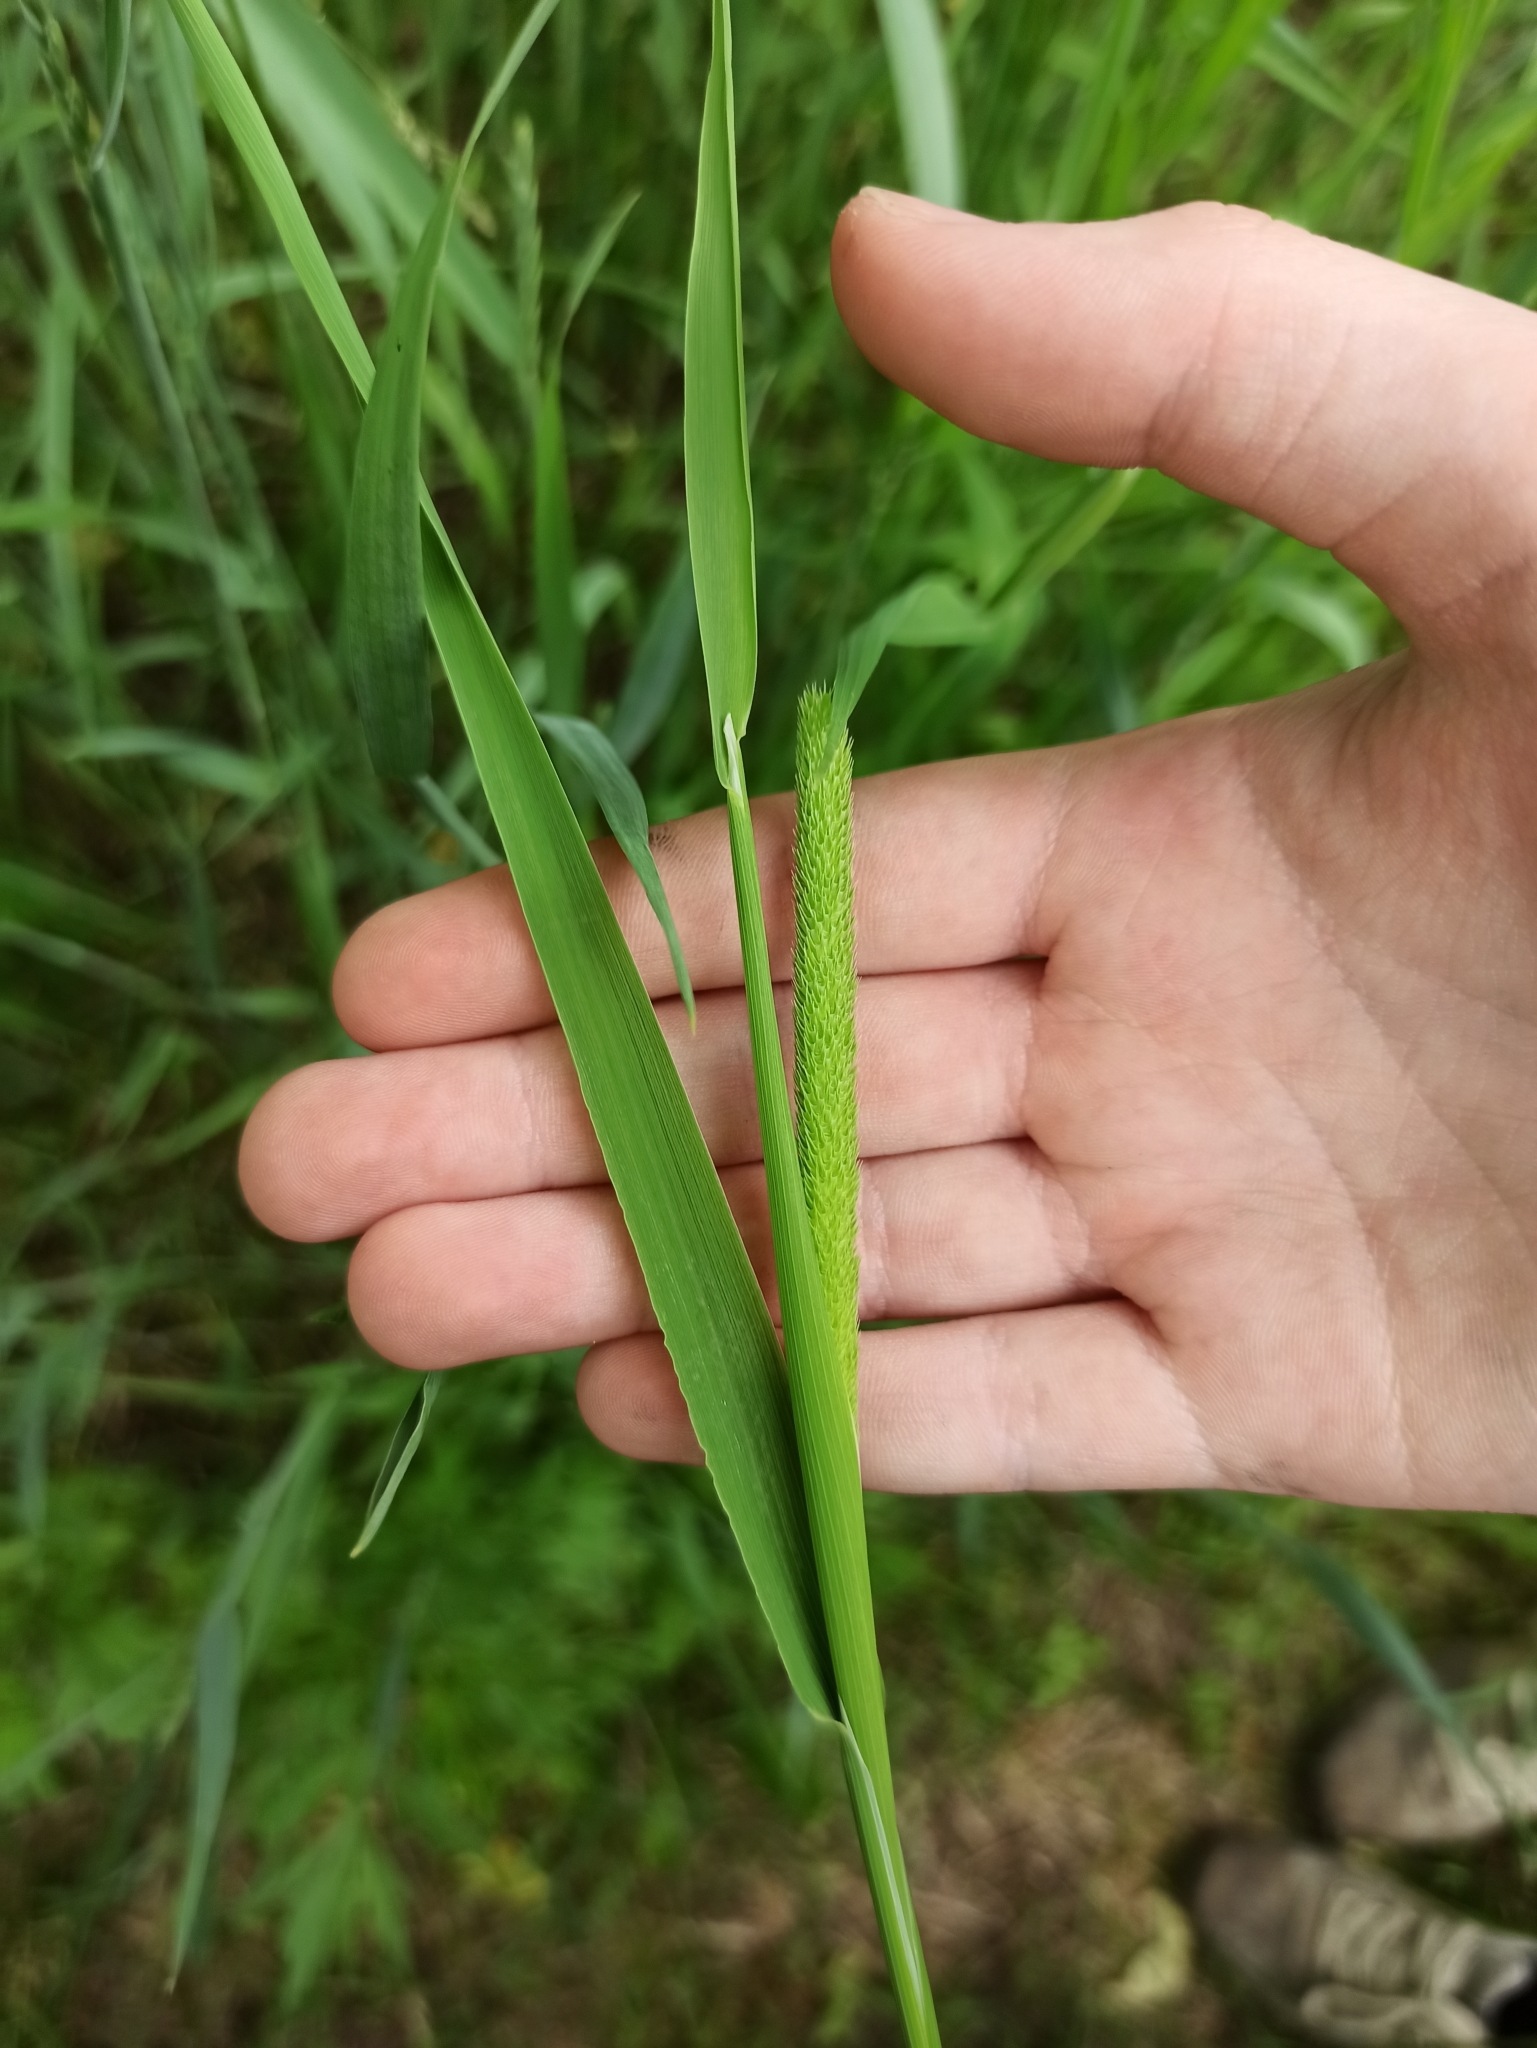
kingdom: Plantae
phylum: Tracheophyta
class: Liliopsida
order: Poales
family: Poaceae
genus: Phleum
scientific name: Phleum pratense
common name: Timothy grass
